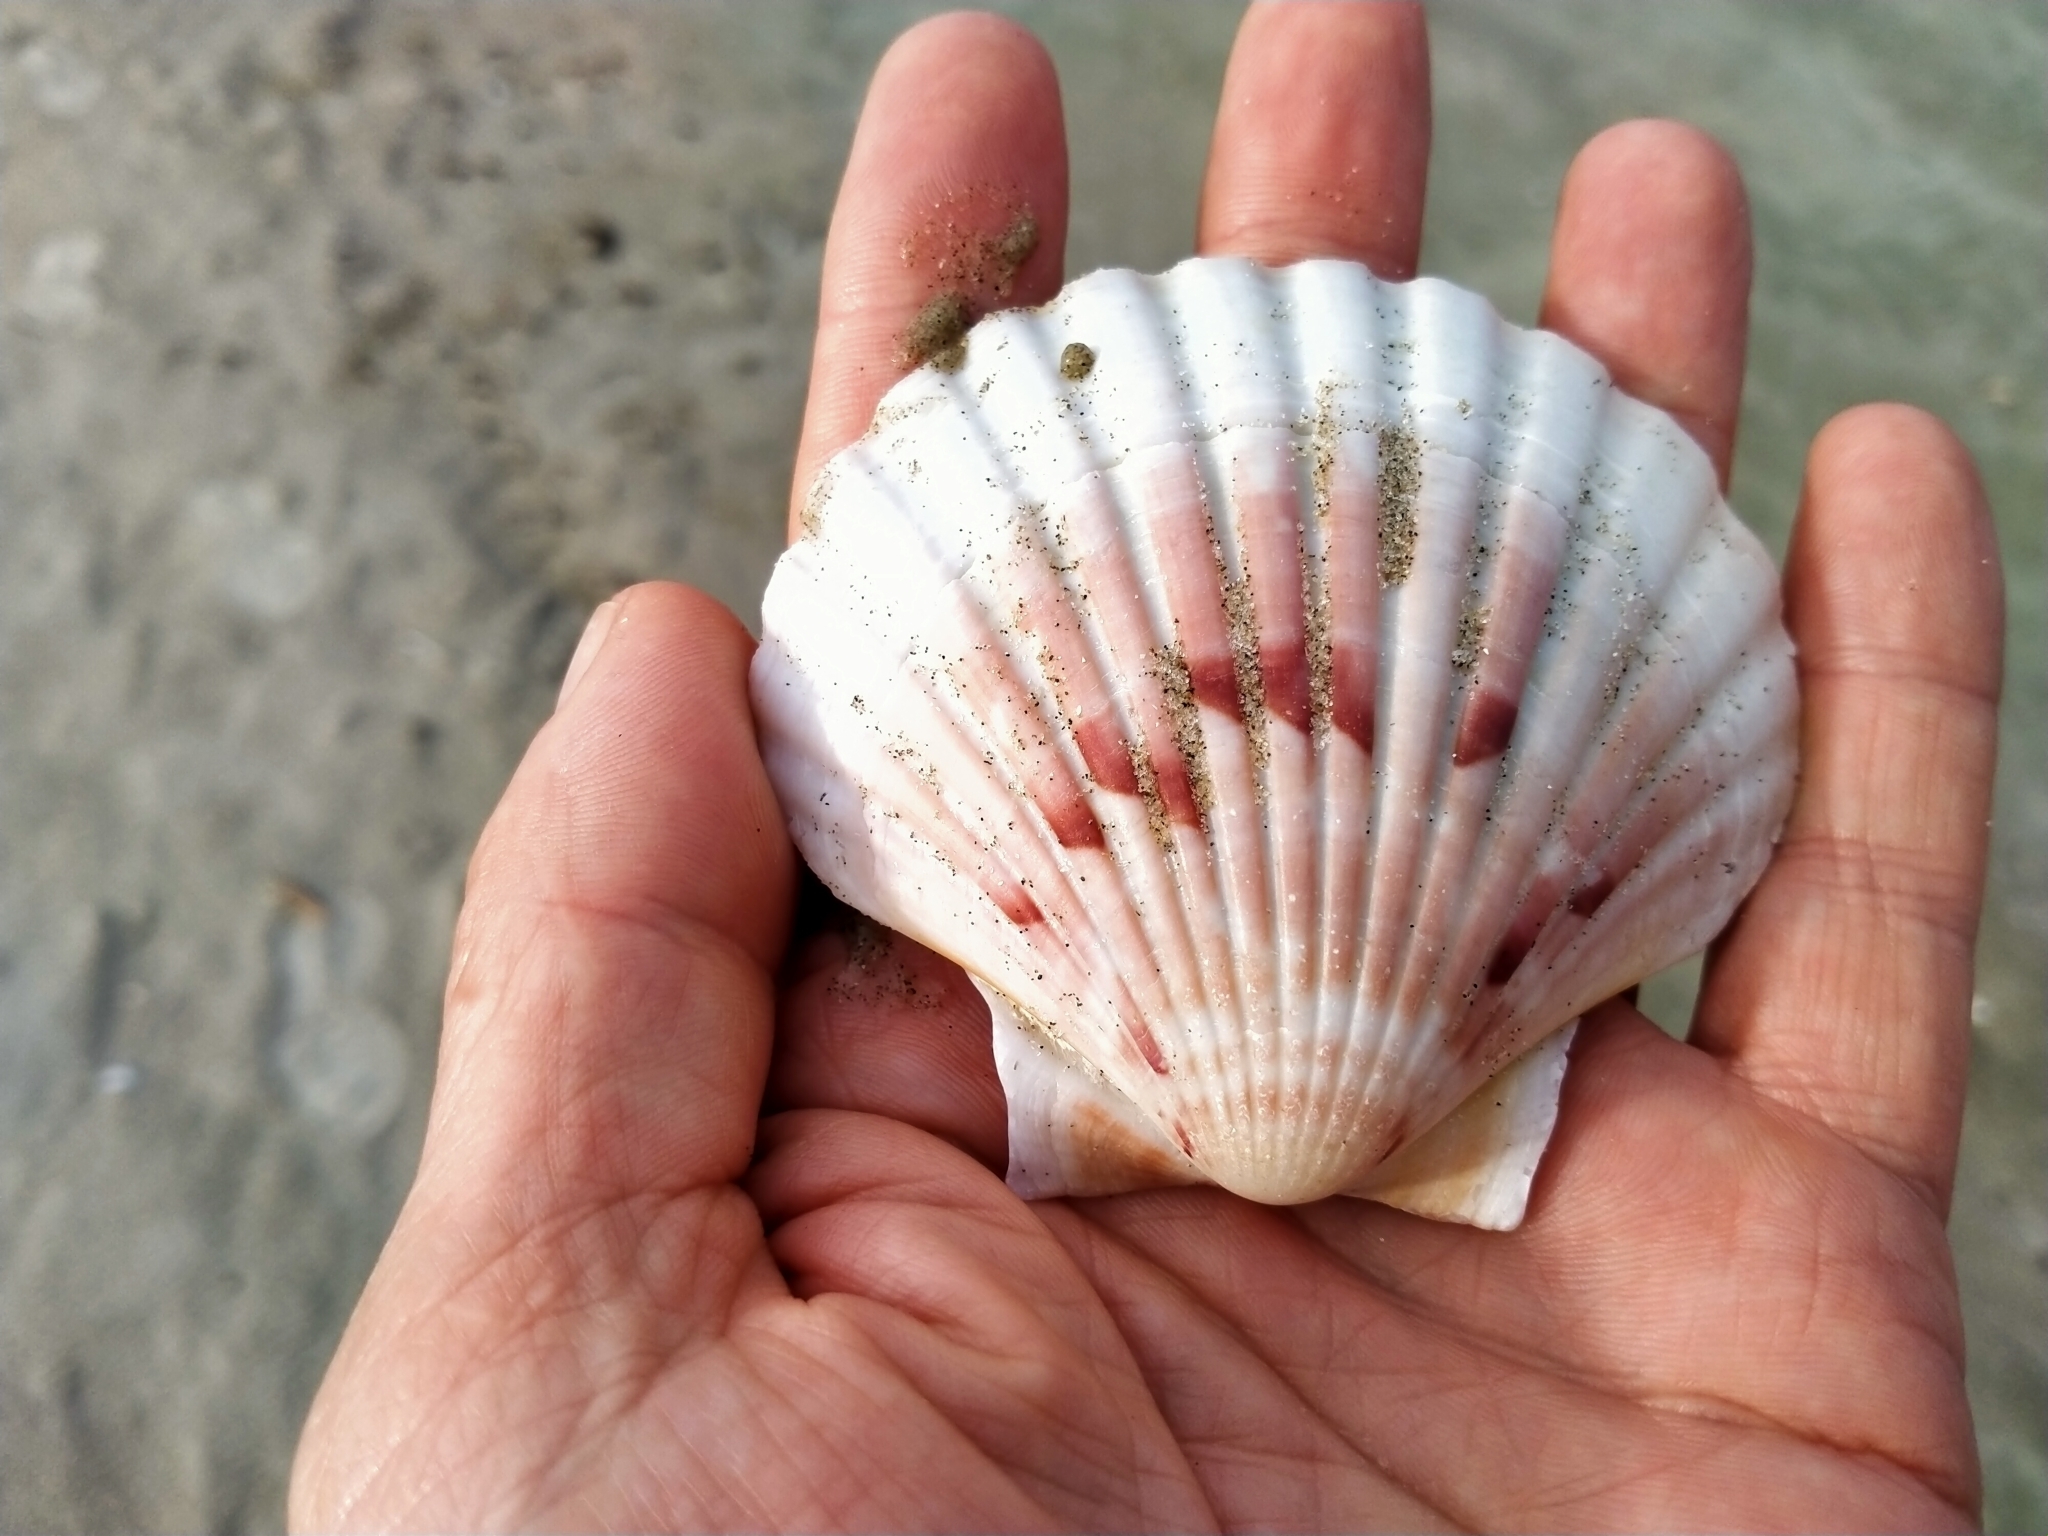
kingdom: Animalia
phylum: Mollusca
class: Bivalvia
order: Pectinida
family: Pectinidae
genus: Pecten
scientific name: Pecten novaezelandiae
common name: New zealand scallop
